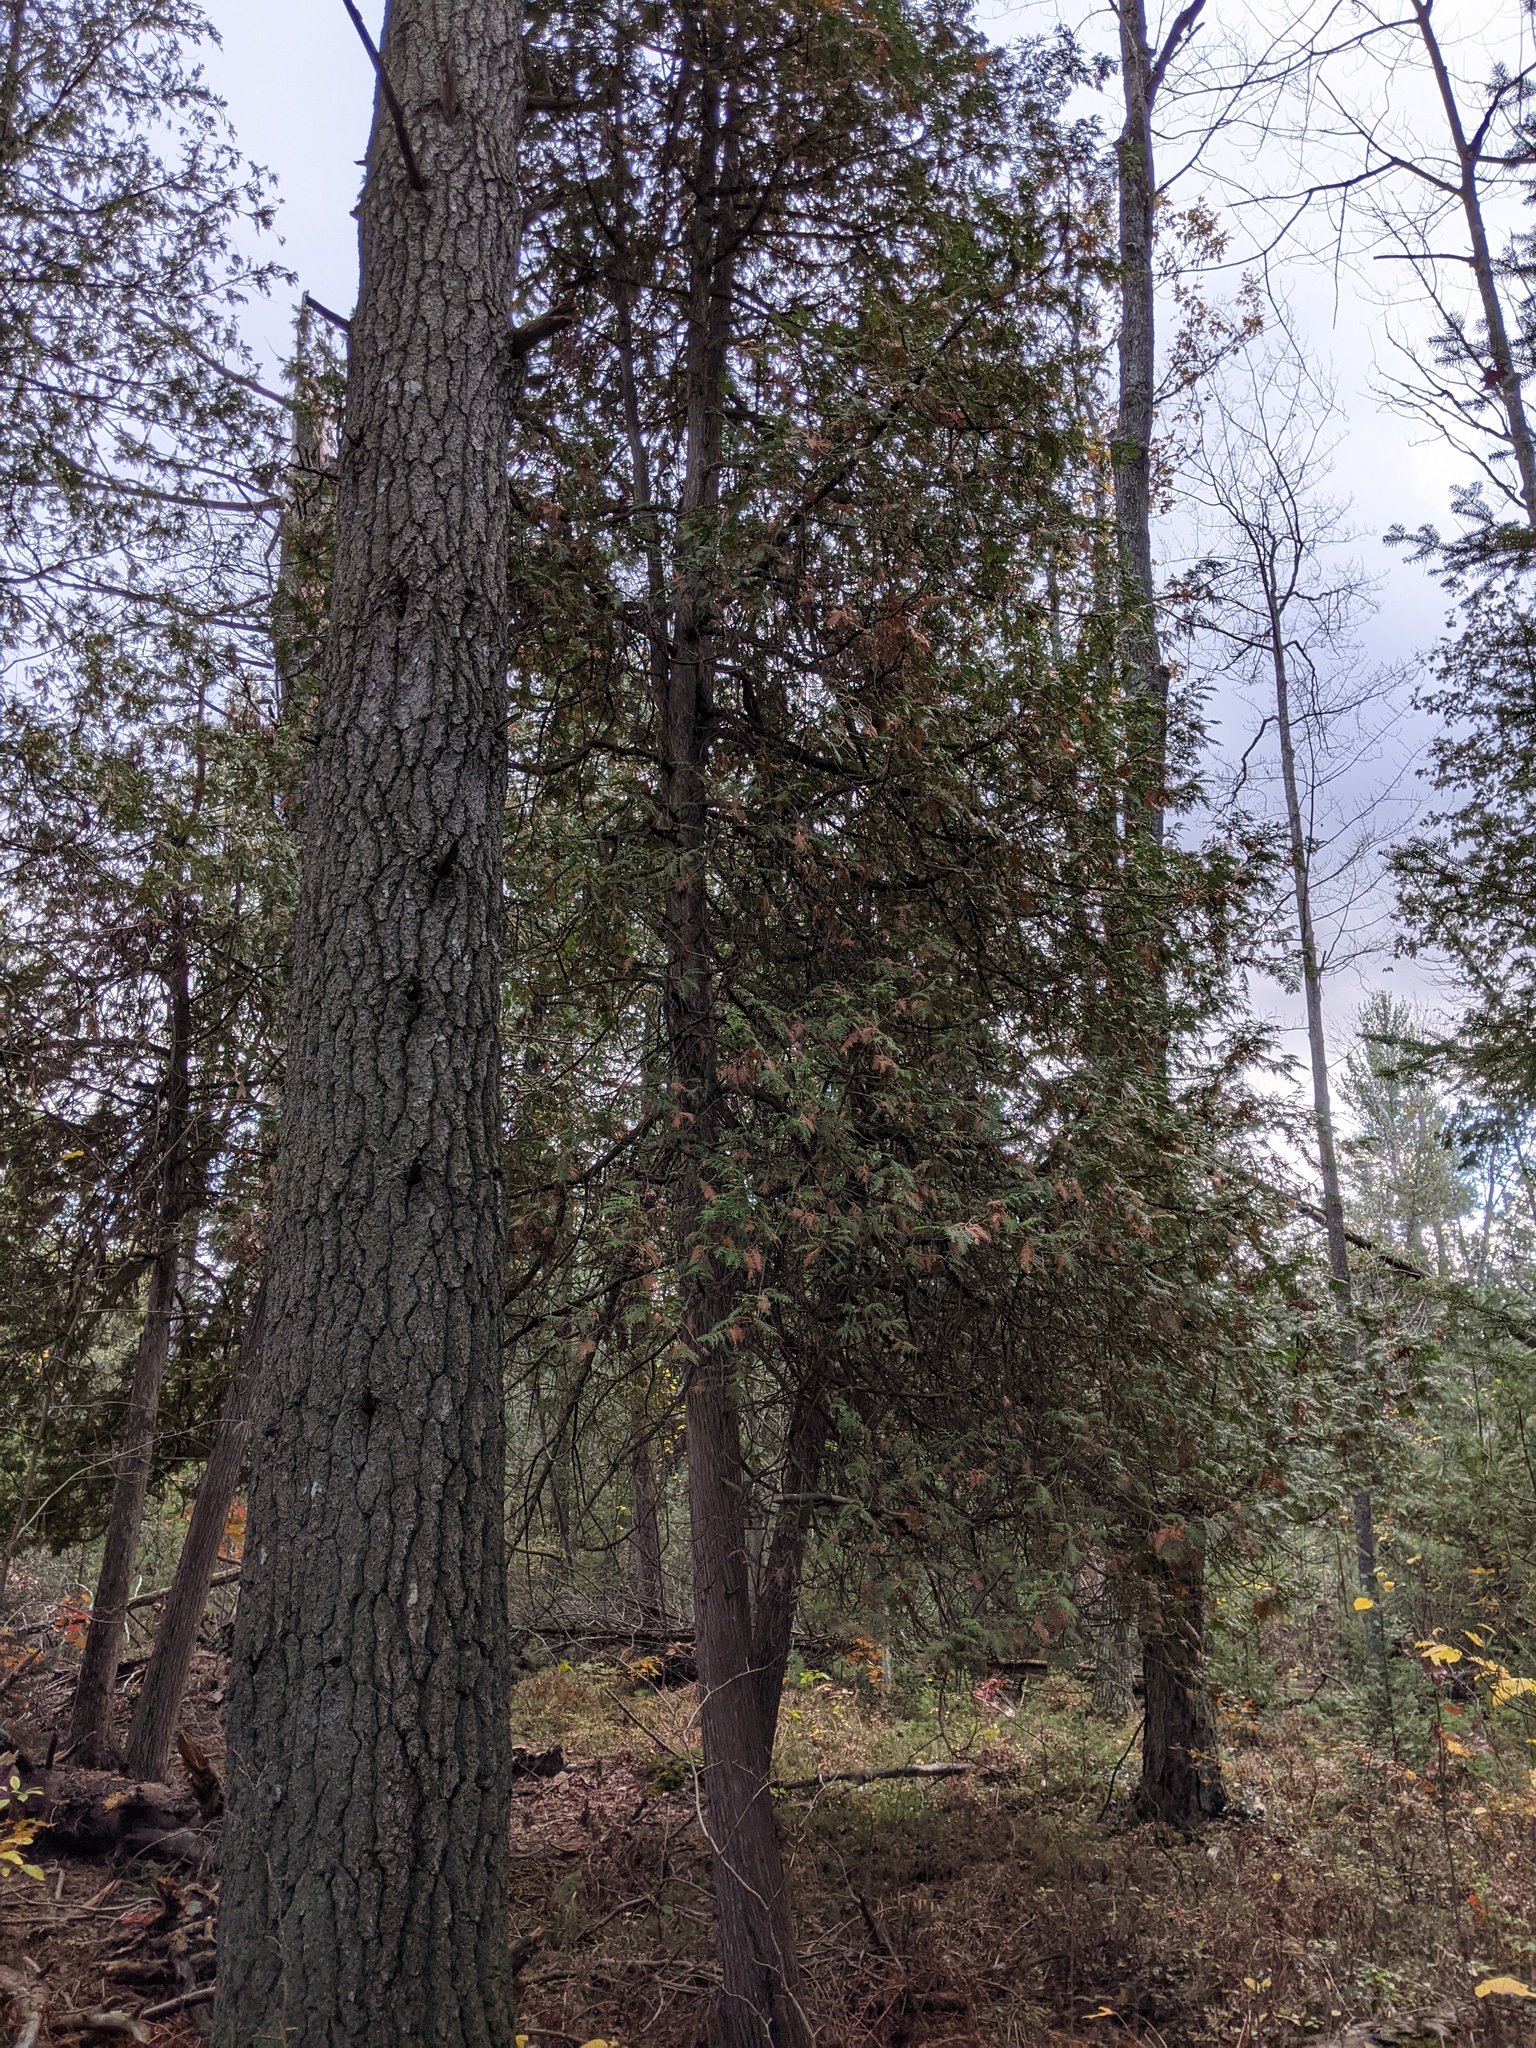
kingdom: Plantae
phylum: Tracheophyta
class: Pinopsida
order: Pinales
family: Cupressaceae
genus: Thuja
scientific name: Thuja occidentalis
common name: Northern white-cedar
